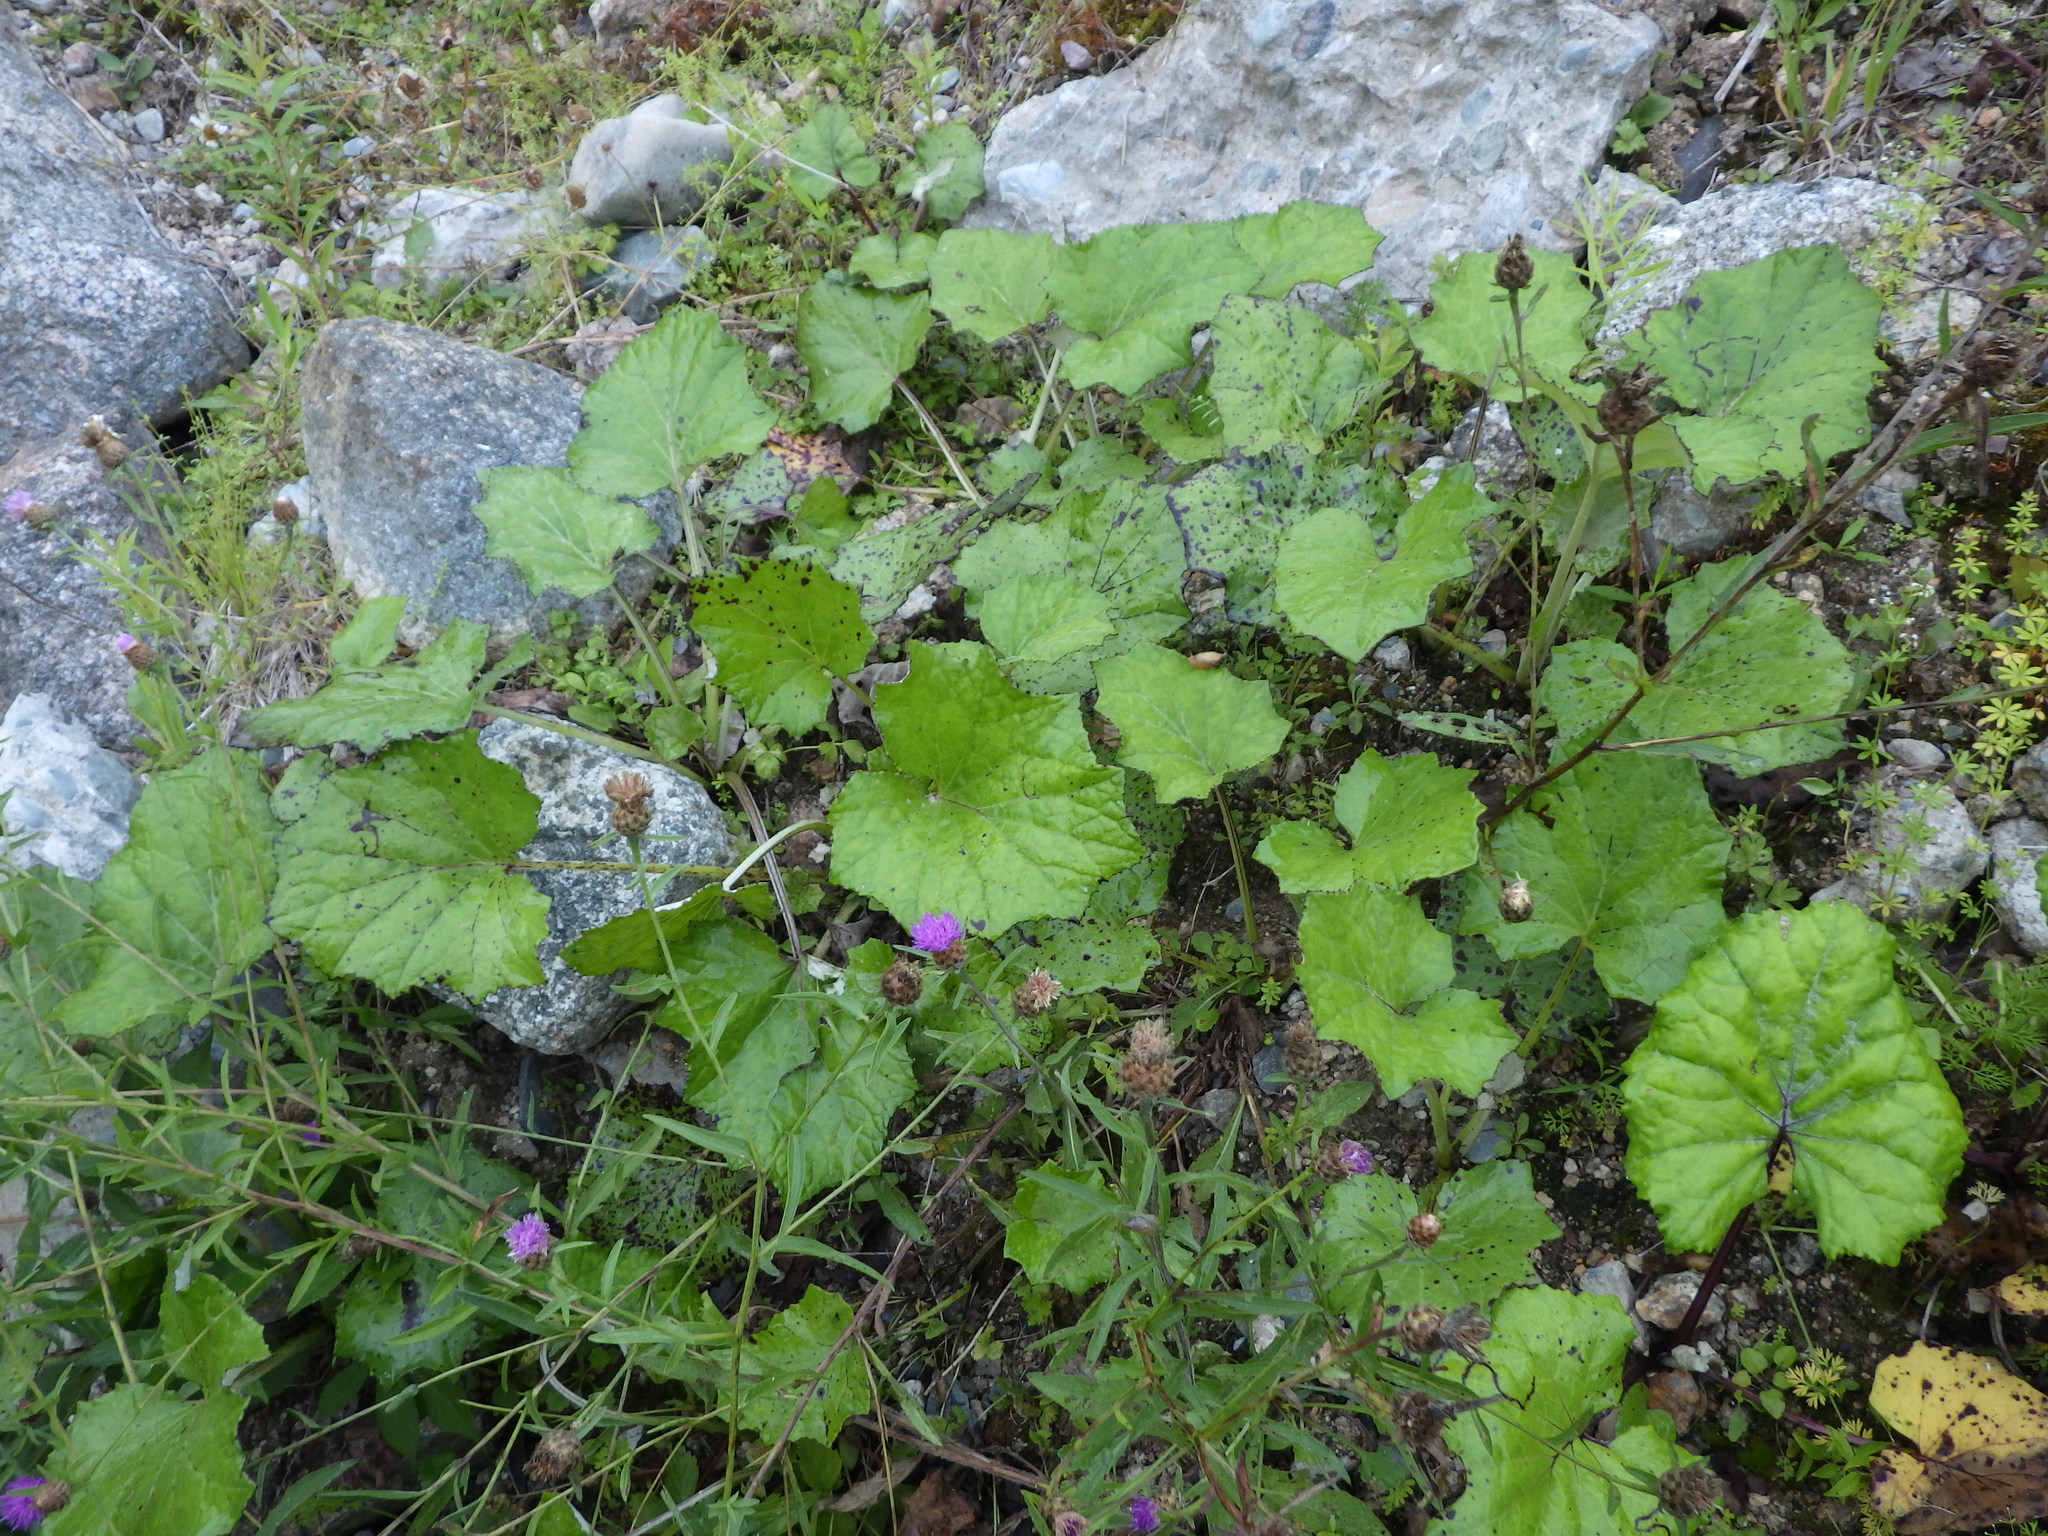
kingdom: Plantae
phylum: Tracheophyta
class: Magnoliopsida
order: Asterales
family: Asteraceae
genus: Tussilago
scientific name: Tussilago farfara
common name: Coltsfoot
